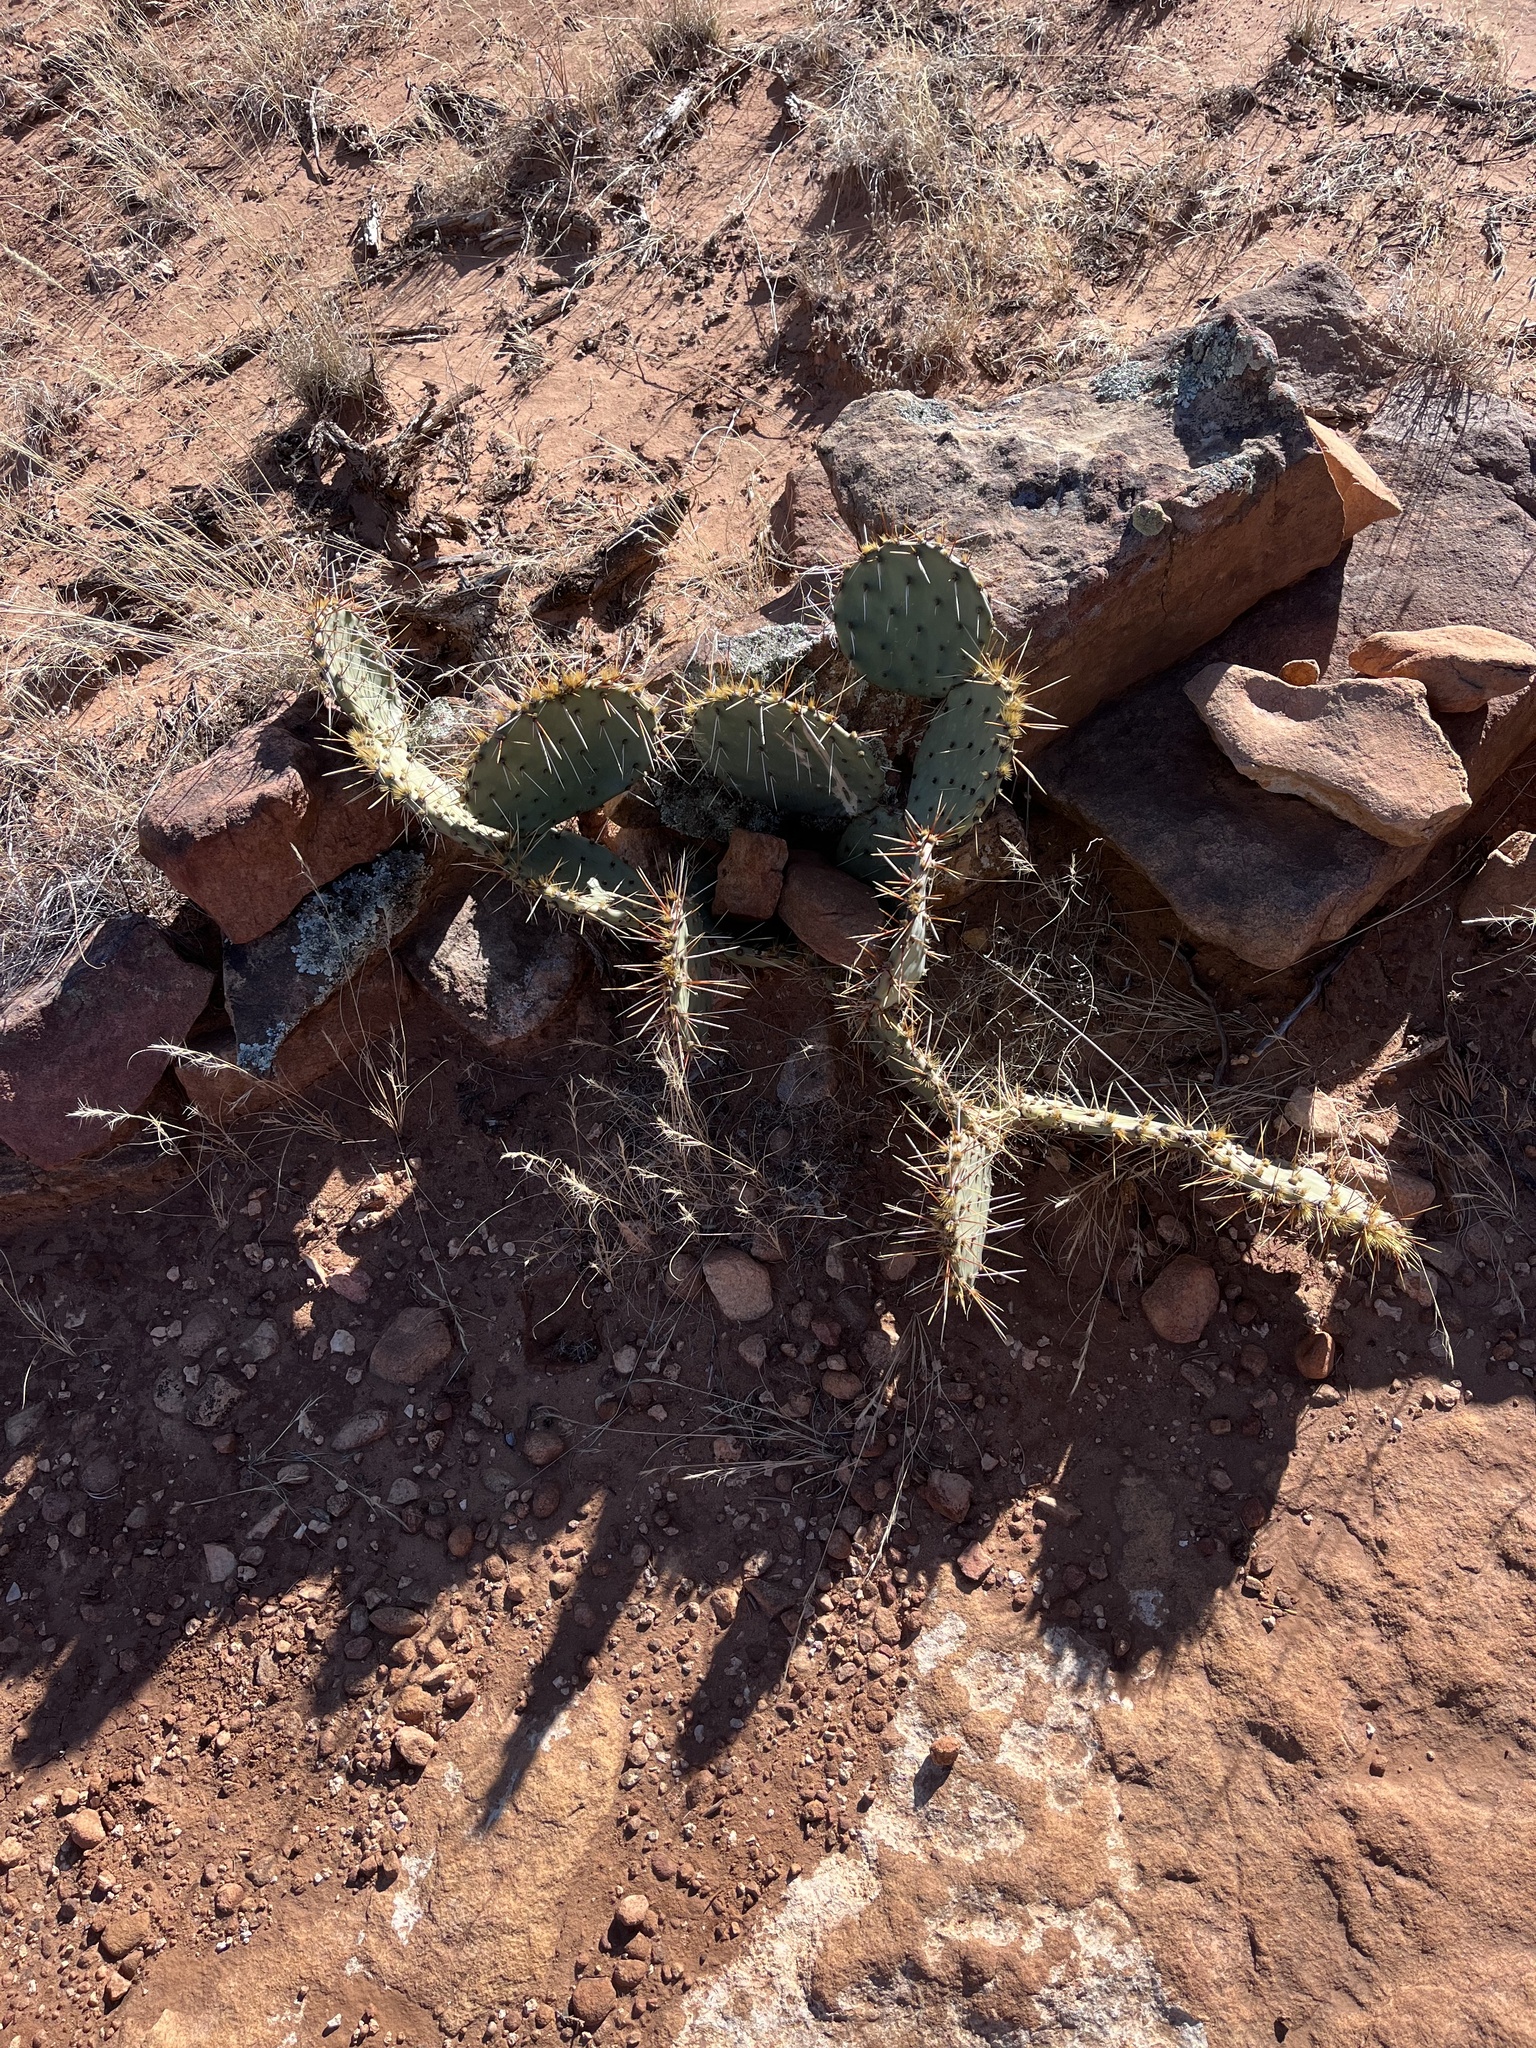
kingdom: Plantae
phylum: Tracheophyta
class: Magnoliopsida
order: Caryophyllales
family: Cactaceae
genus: Opuntia
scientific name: Opuntia phaeacantha
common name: New mexico prickly-pear
